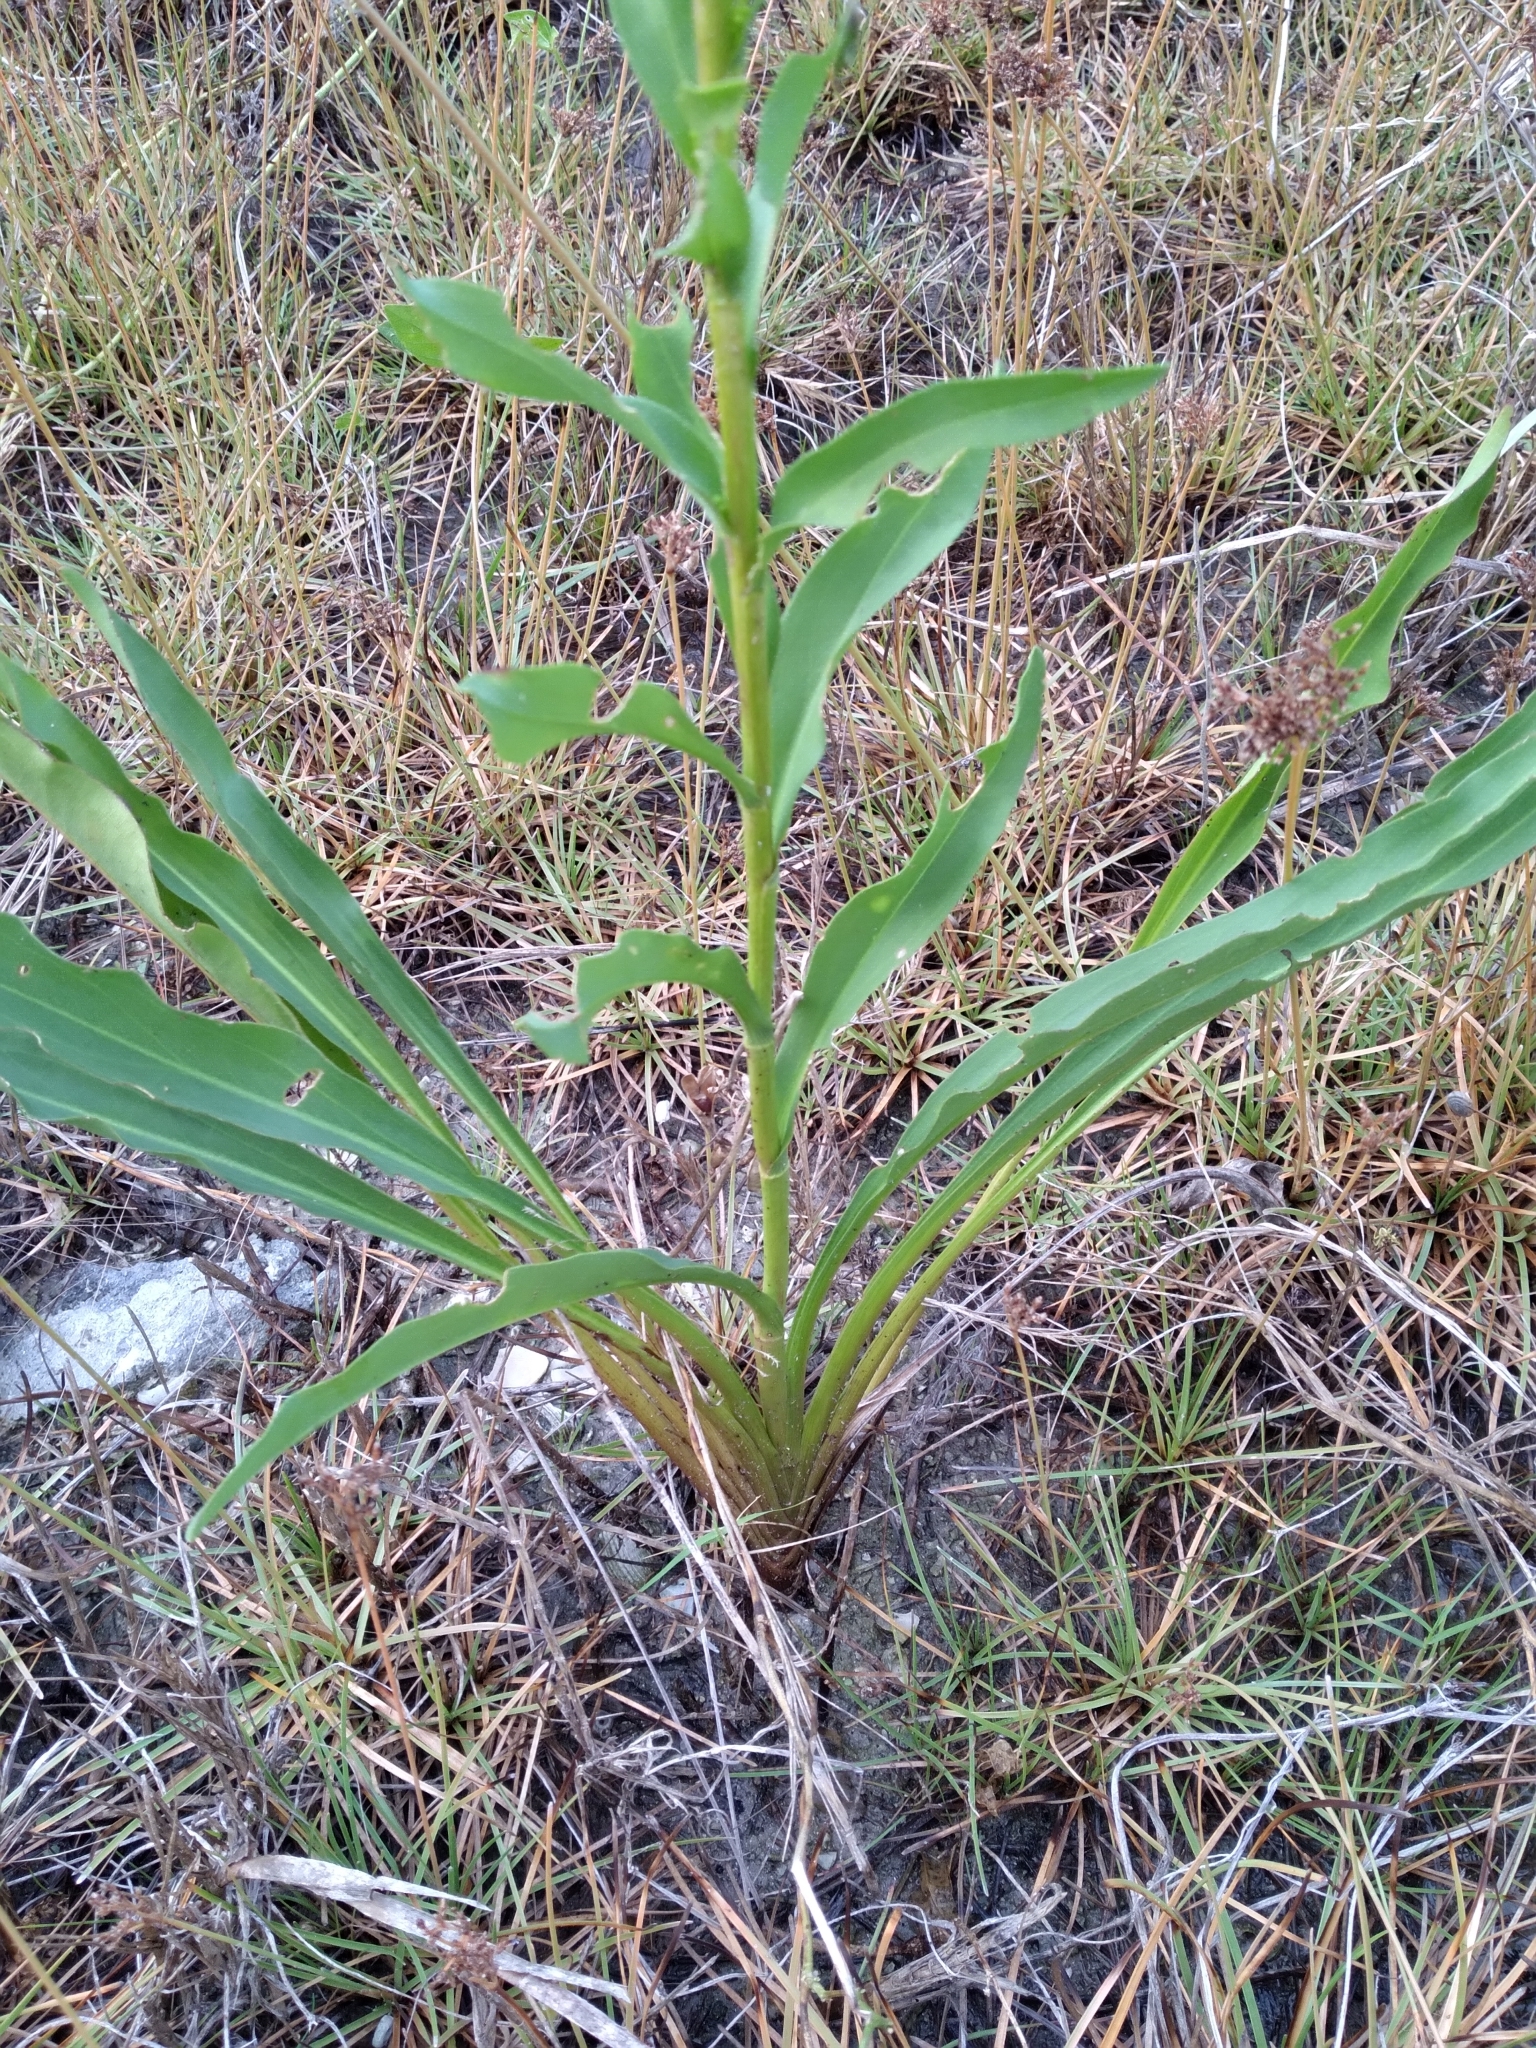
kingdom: Plantae
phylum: Tracheophyta
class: Magnoliopsida
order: Asterales
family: Asteraceae
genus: Solidago
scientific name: Solidago mexicana
